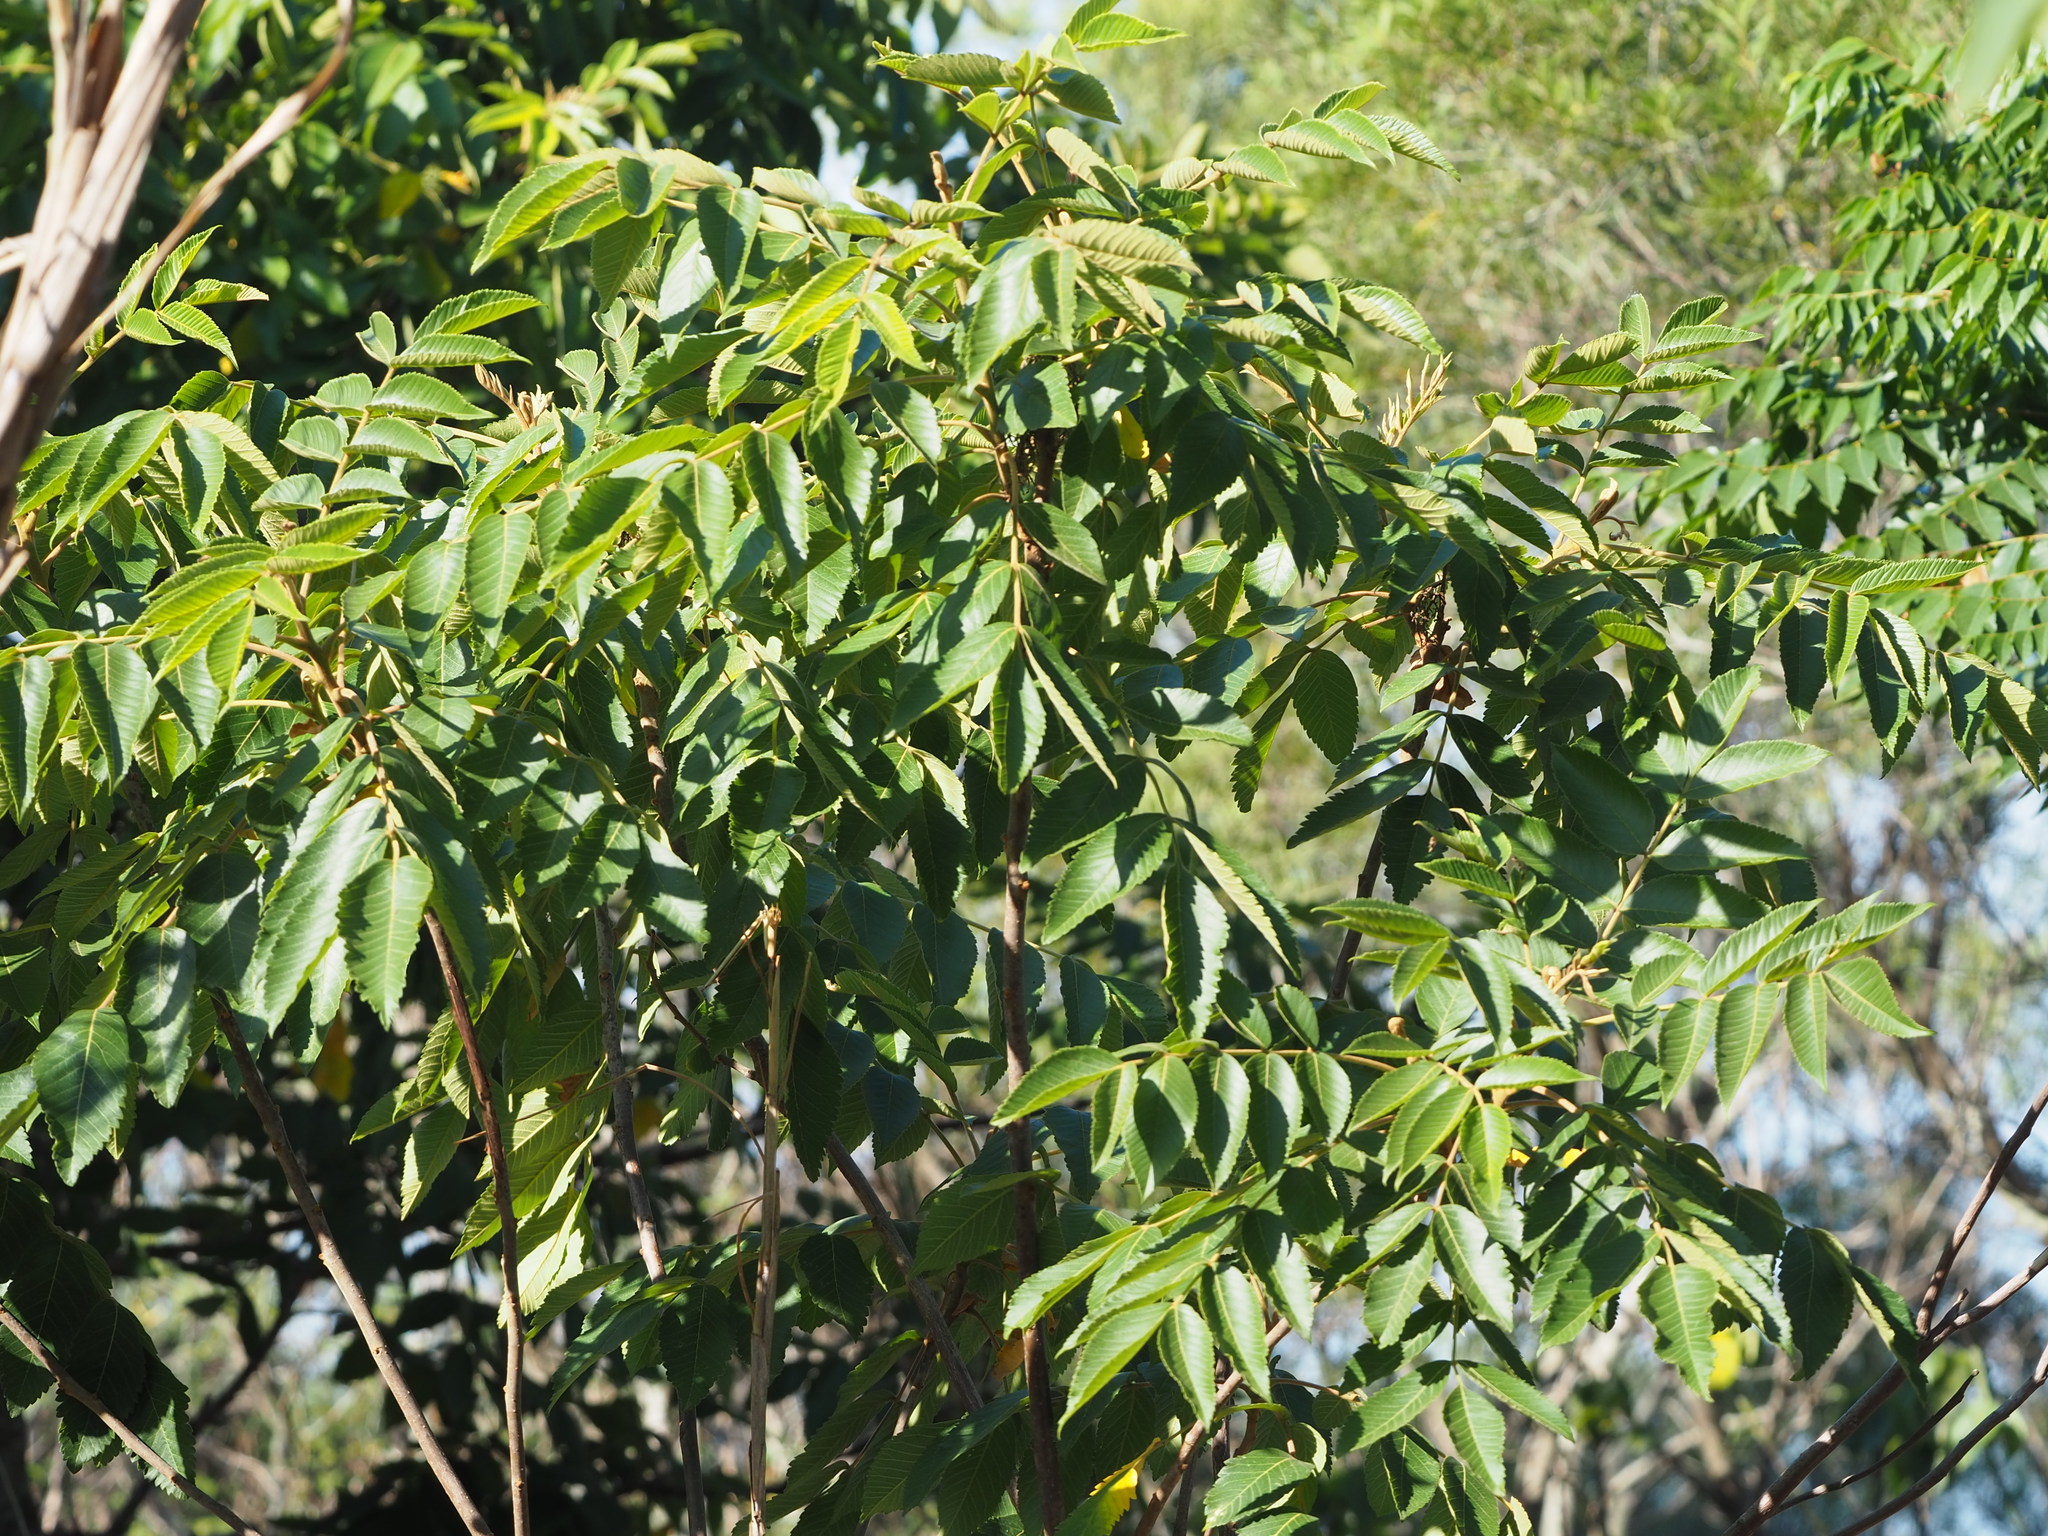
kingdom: Plantae
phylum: Tracheophyta
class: Magnoliopsida
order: Sapindales
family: Anacardiaceae
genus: Rhus
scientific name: Rhus chinensis
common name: Chinese gall
